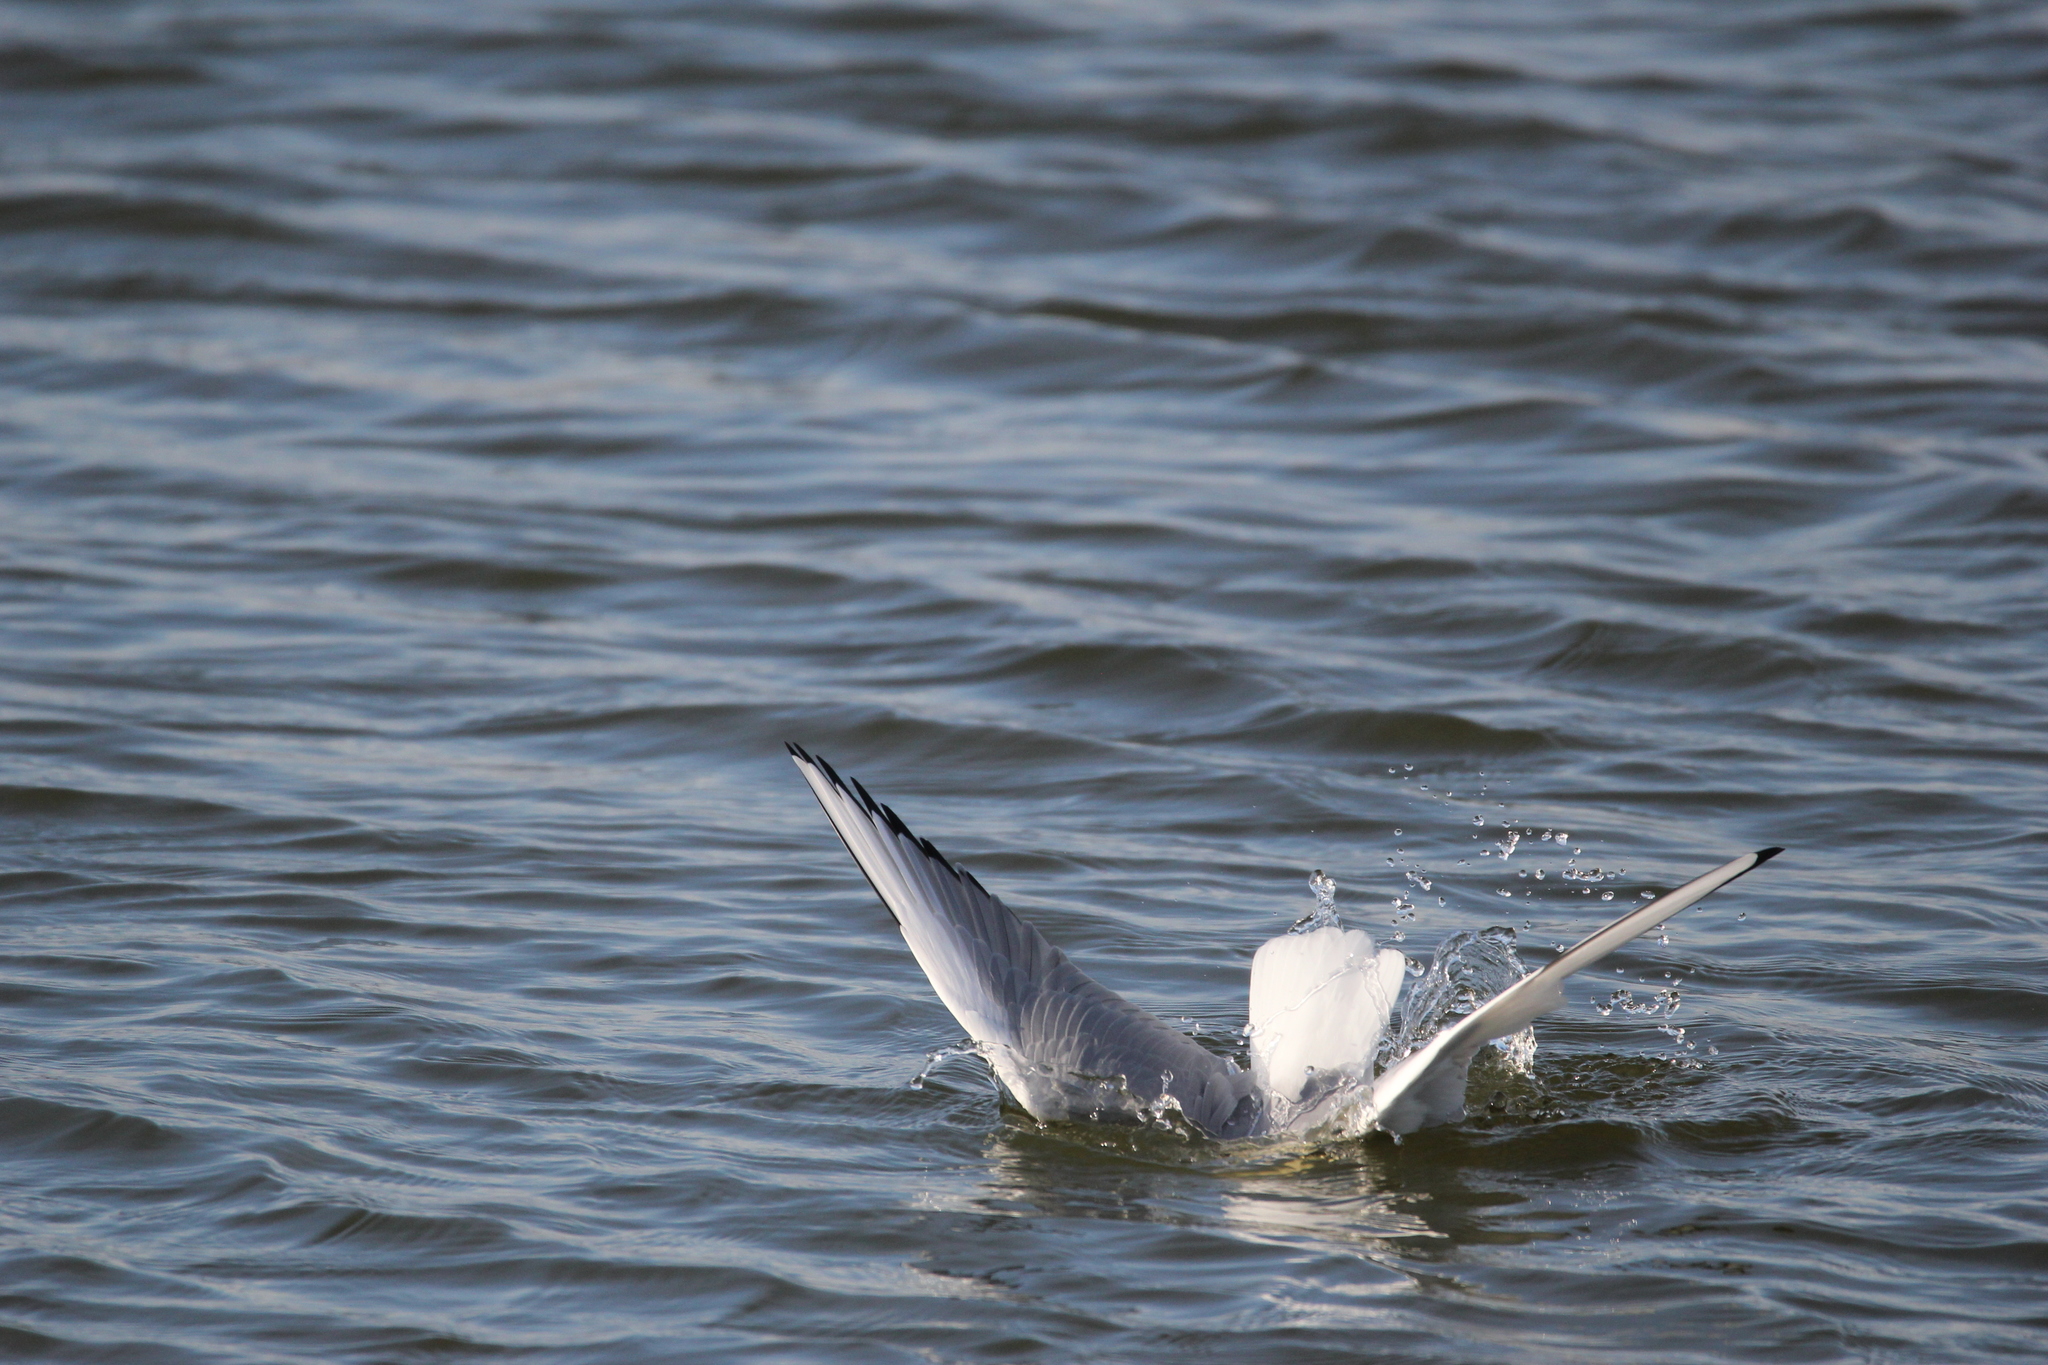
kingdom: Animalia
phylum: Chordata
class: Aves
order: Charadriiformes
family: Laridae
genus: Chroicocephalus
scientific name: Chroicocephalus philadelphia
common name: Bonaparte's gull
